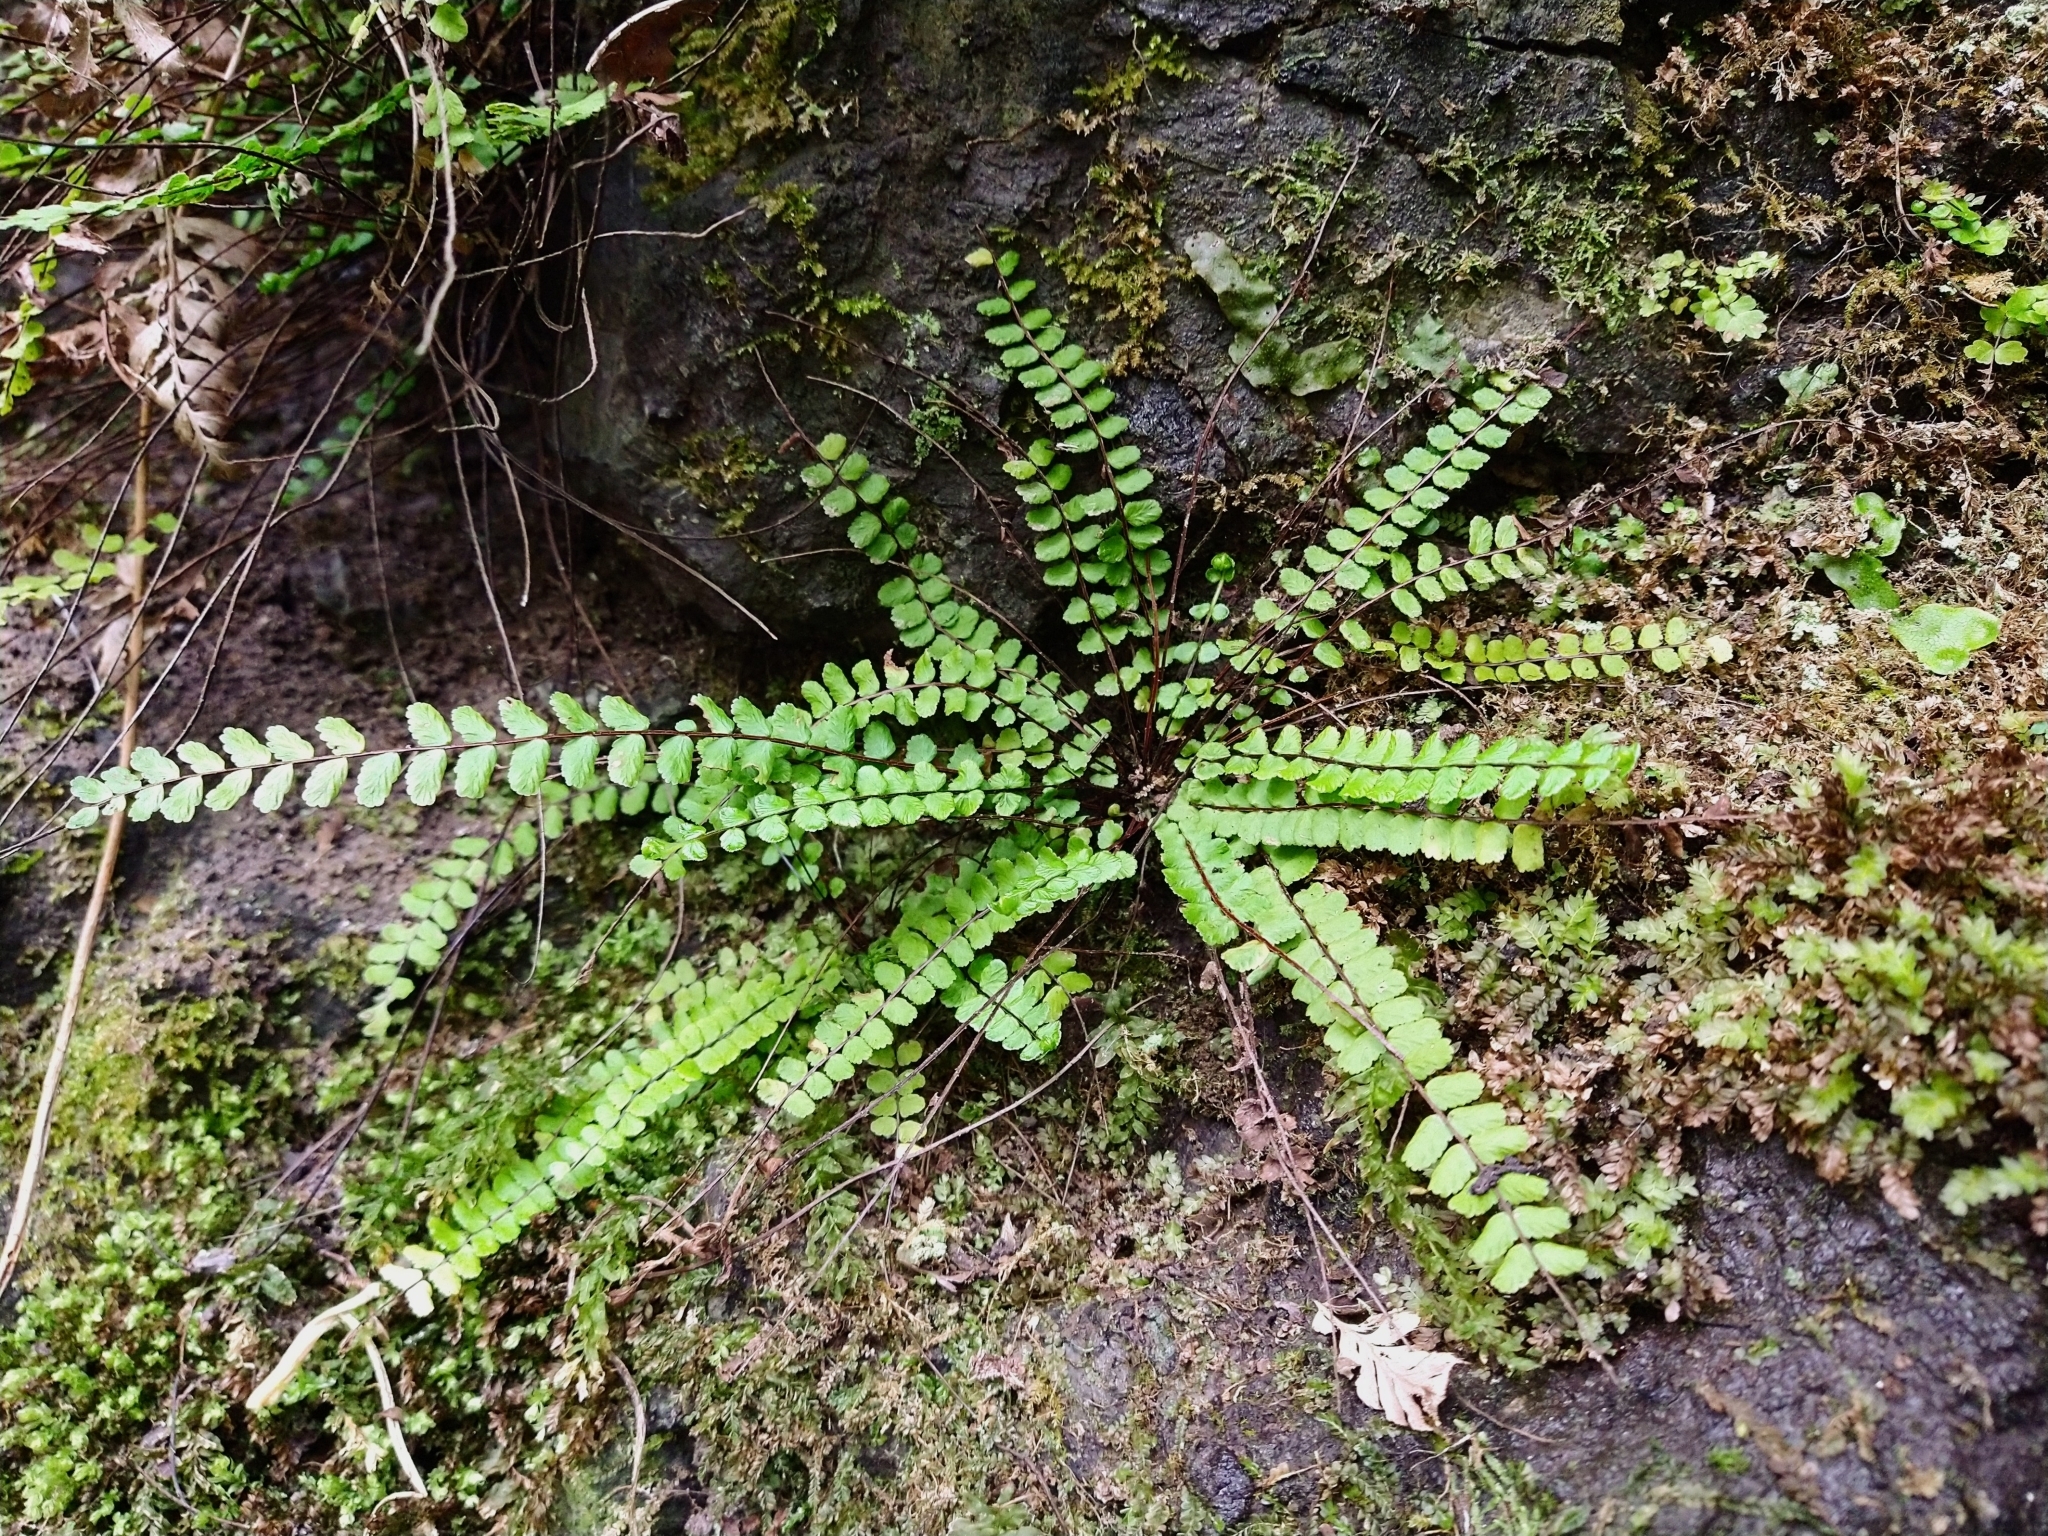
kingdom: Plantae
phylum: Tracheophyta
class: Polypodiopsida
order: Polypodiales
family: Aspleniaceae
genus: Asplenium
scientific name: Asplenium trichomanes
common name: Maidenhair spleenwort
